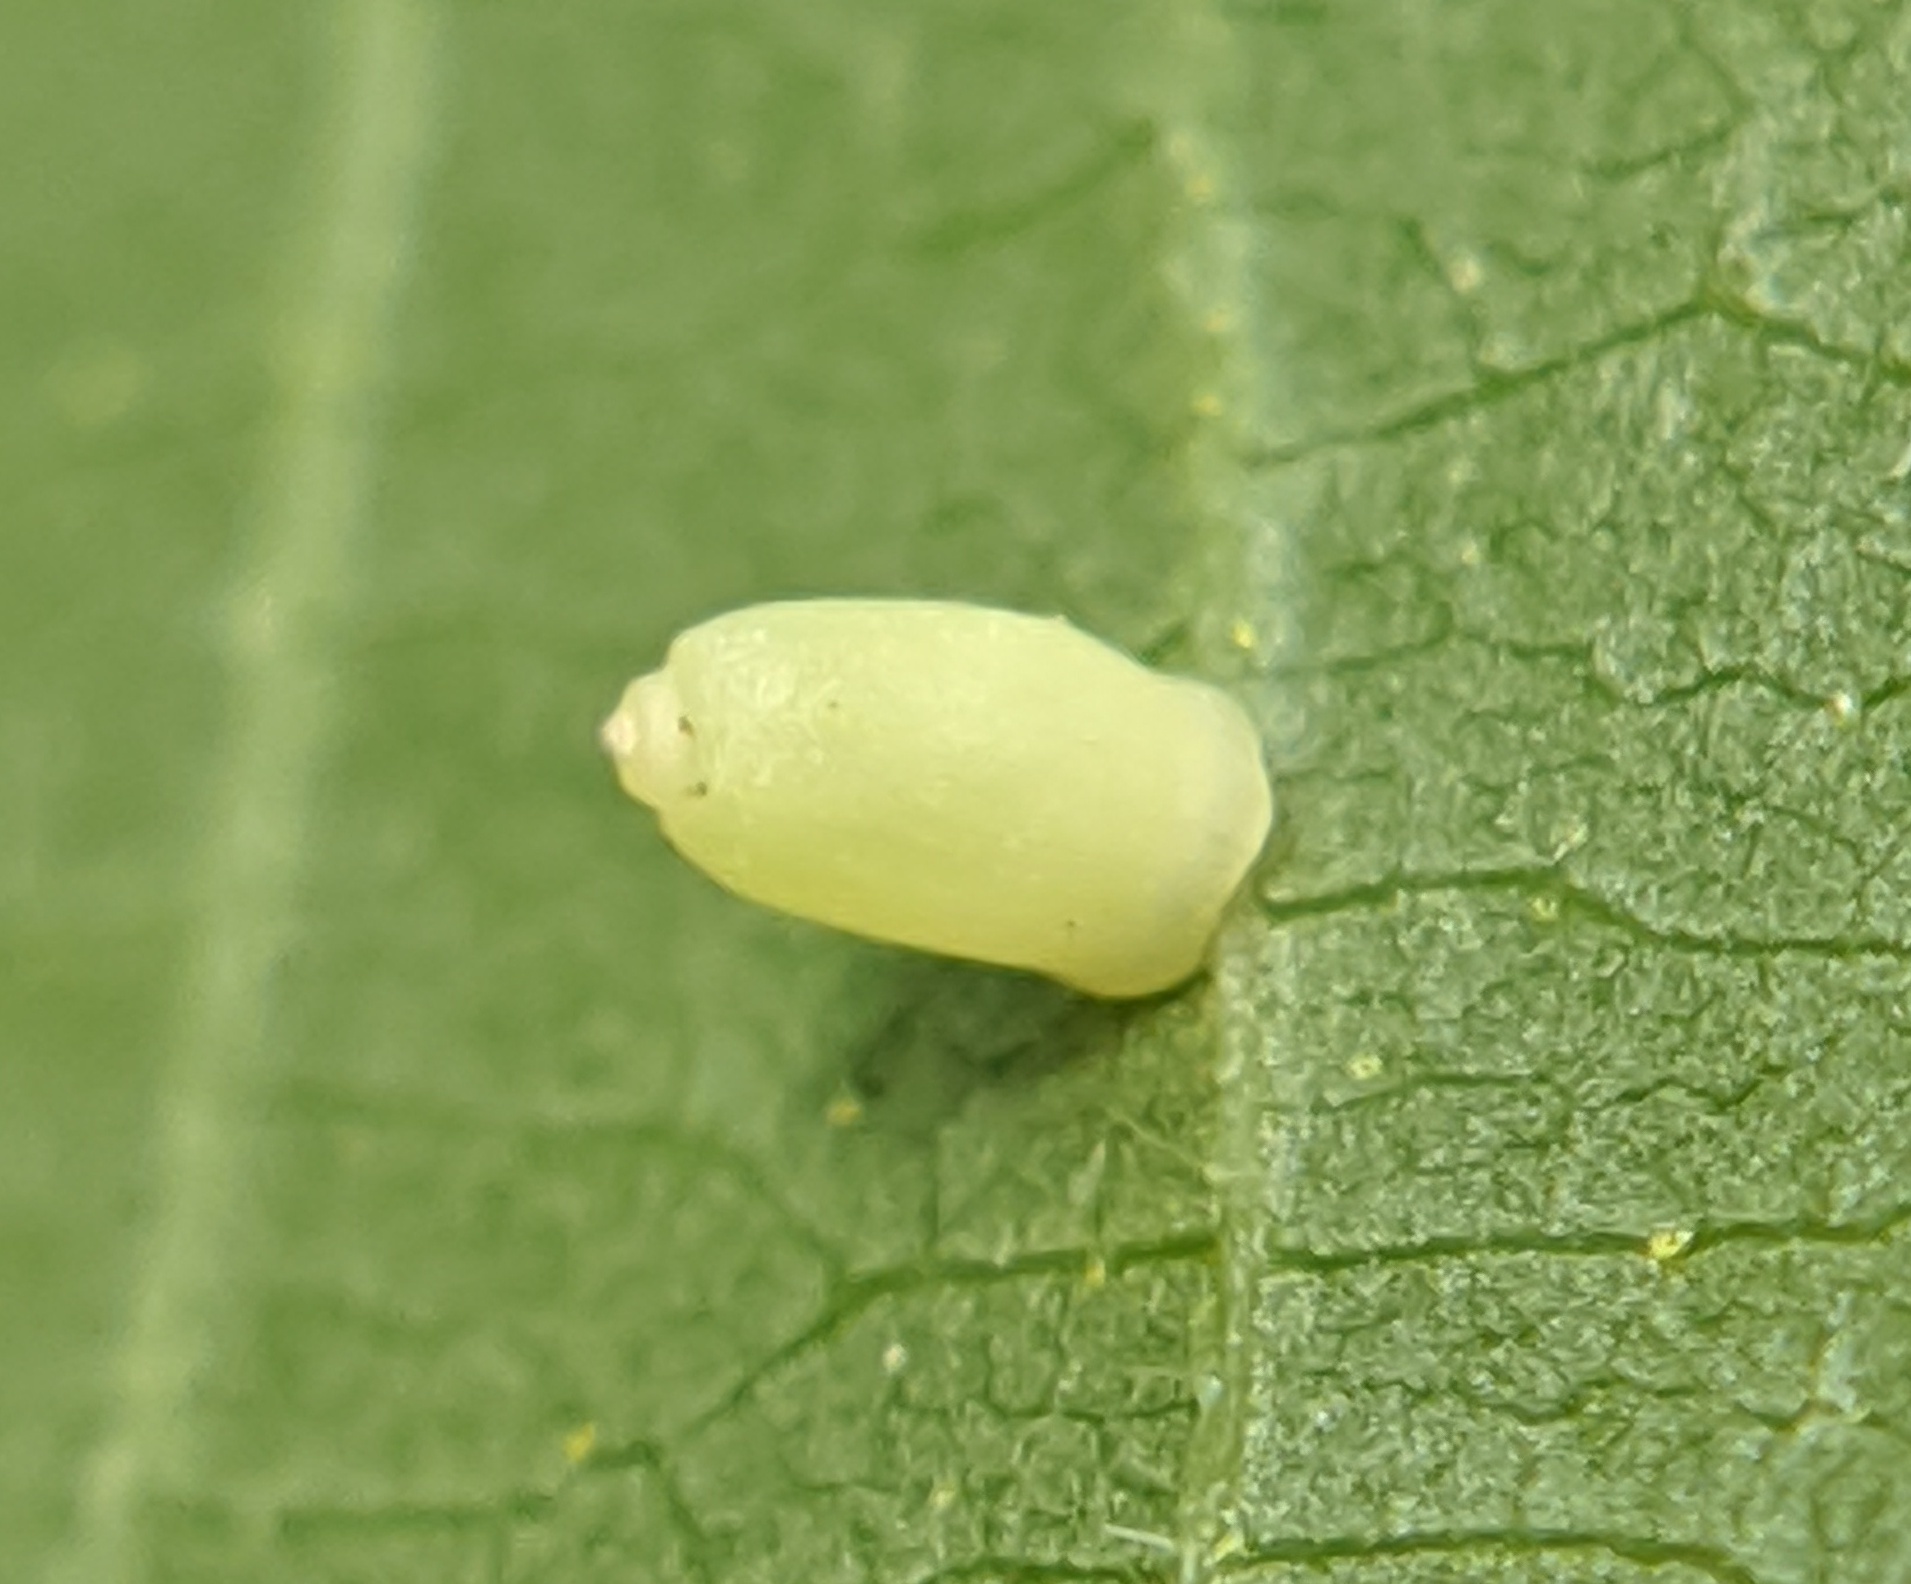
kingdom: Animalia
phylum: Arthropoda
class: Insecta
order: Diptera
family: Cecidomyiidae
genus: Caryomyia
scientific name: Caryomyia urnula
